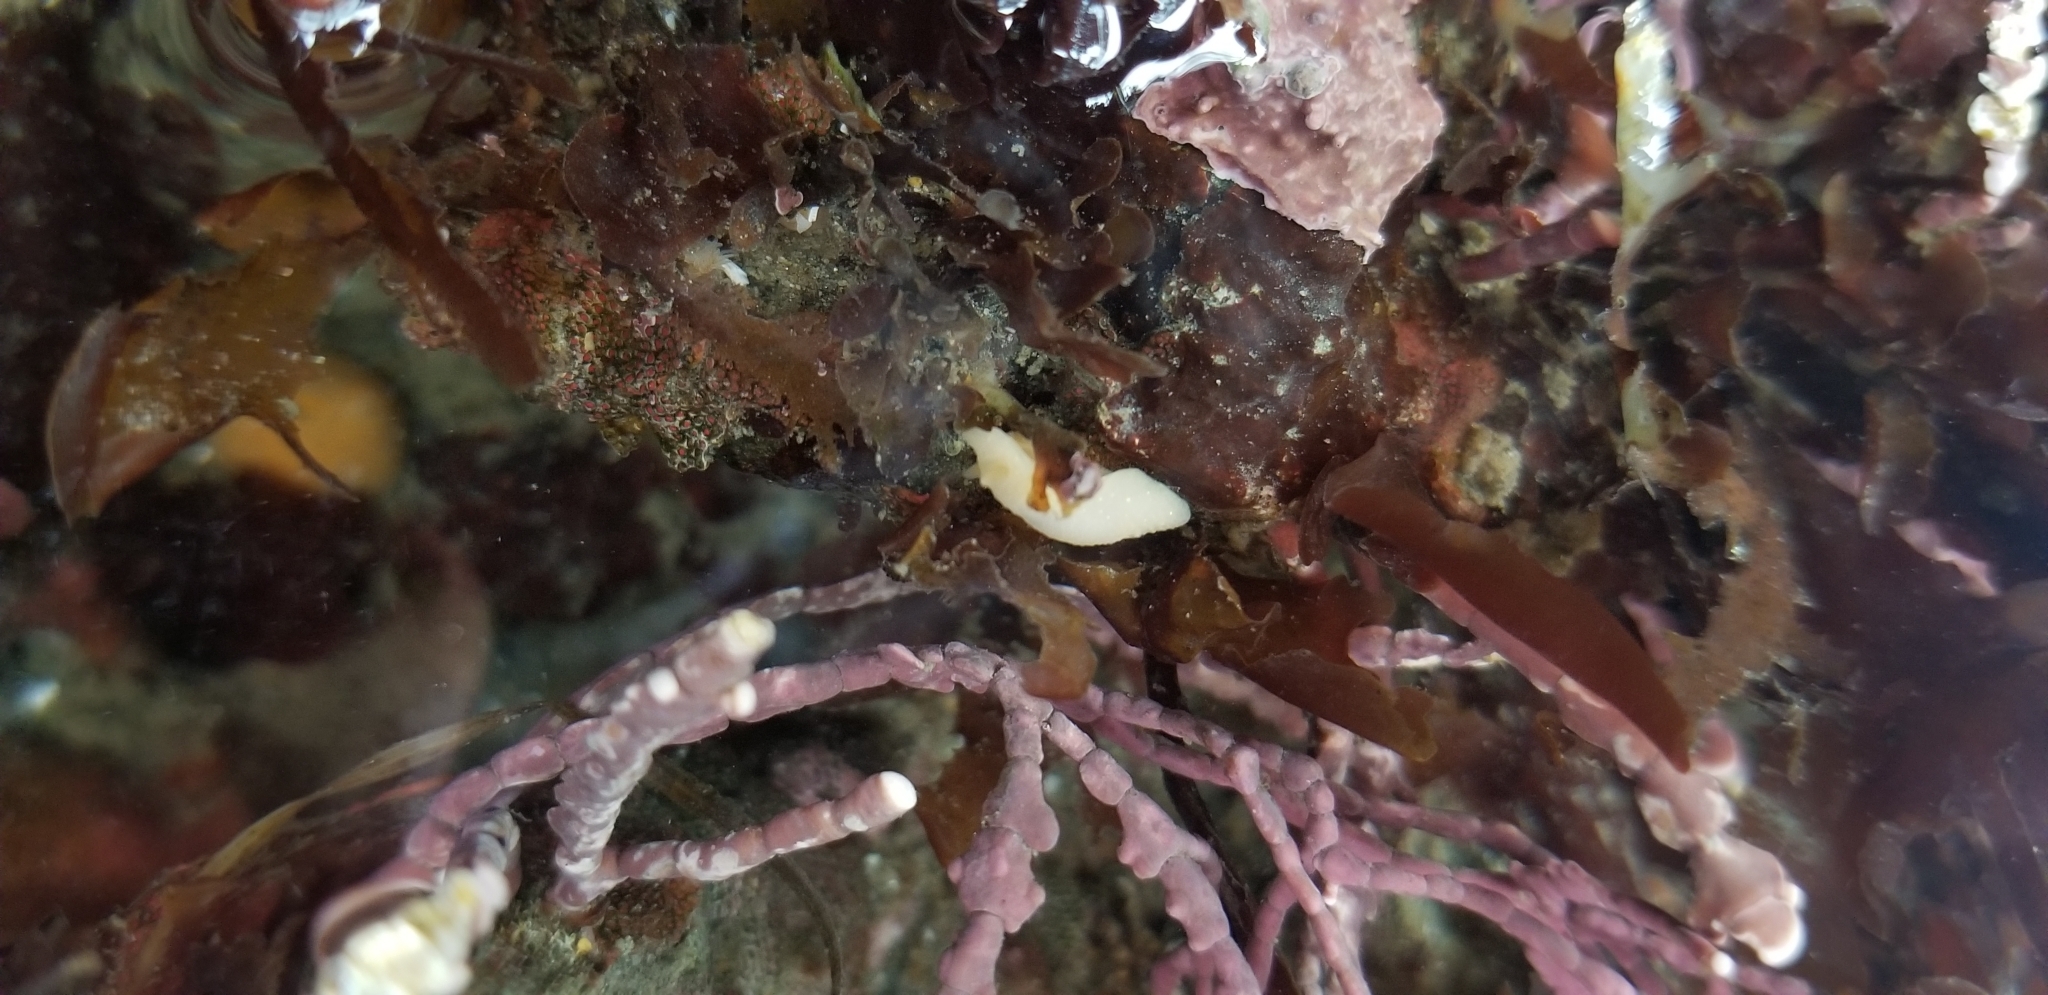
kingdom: Animalia
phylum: Mollusca
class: Gastropoda
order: Nudibranchia
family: Cadlinidae
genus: Cadlina
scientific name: Cadlina modesta
